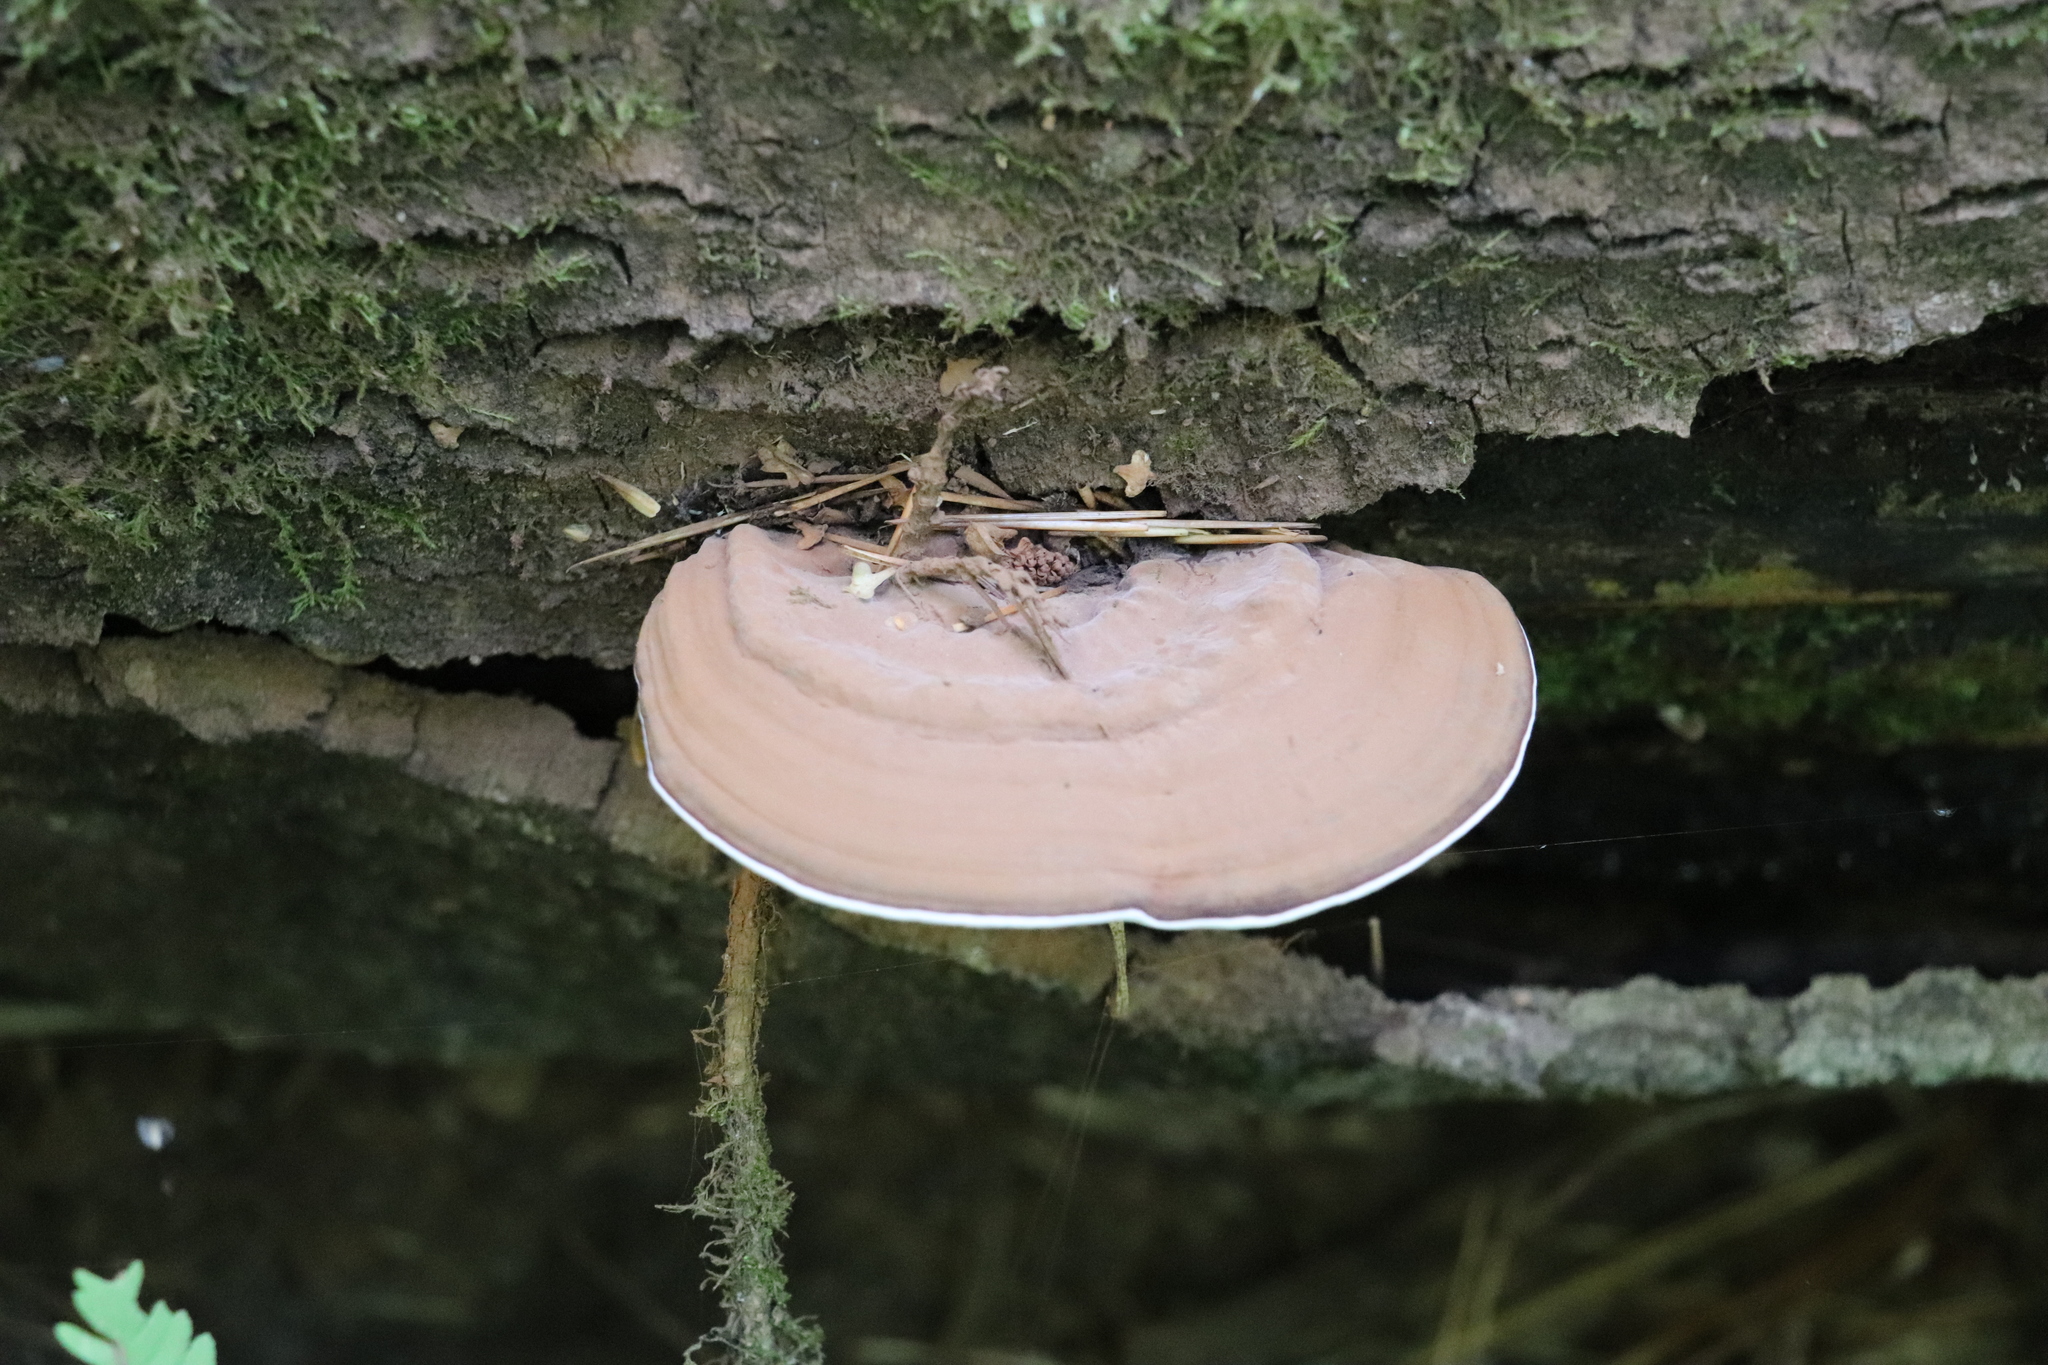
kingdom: Fungi
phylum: Basidiomycota
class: Agaricomycetes
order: Polyporales
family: Polyporaceae
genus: Ganoderma
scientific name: Ganoderma applanatum
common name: Artist's bracket
